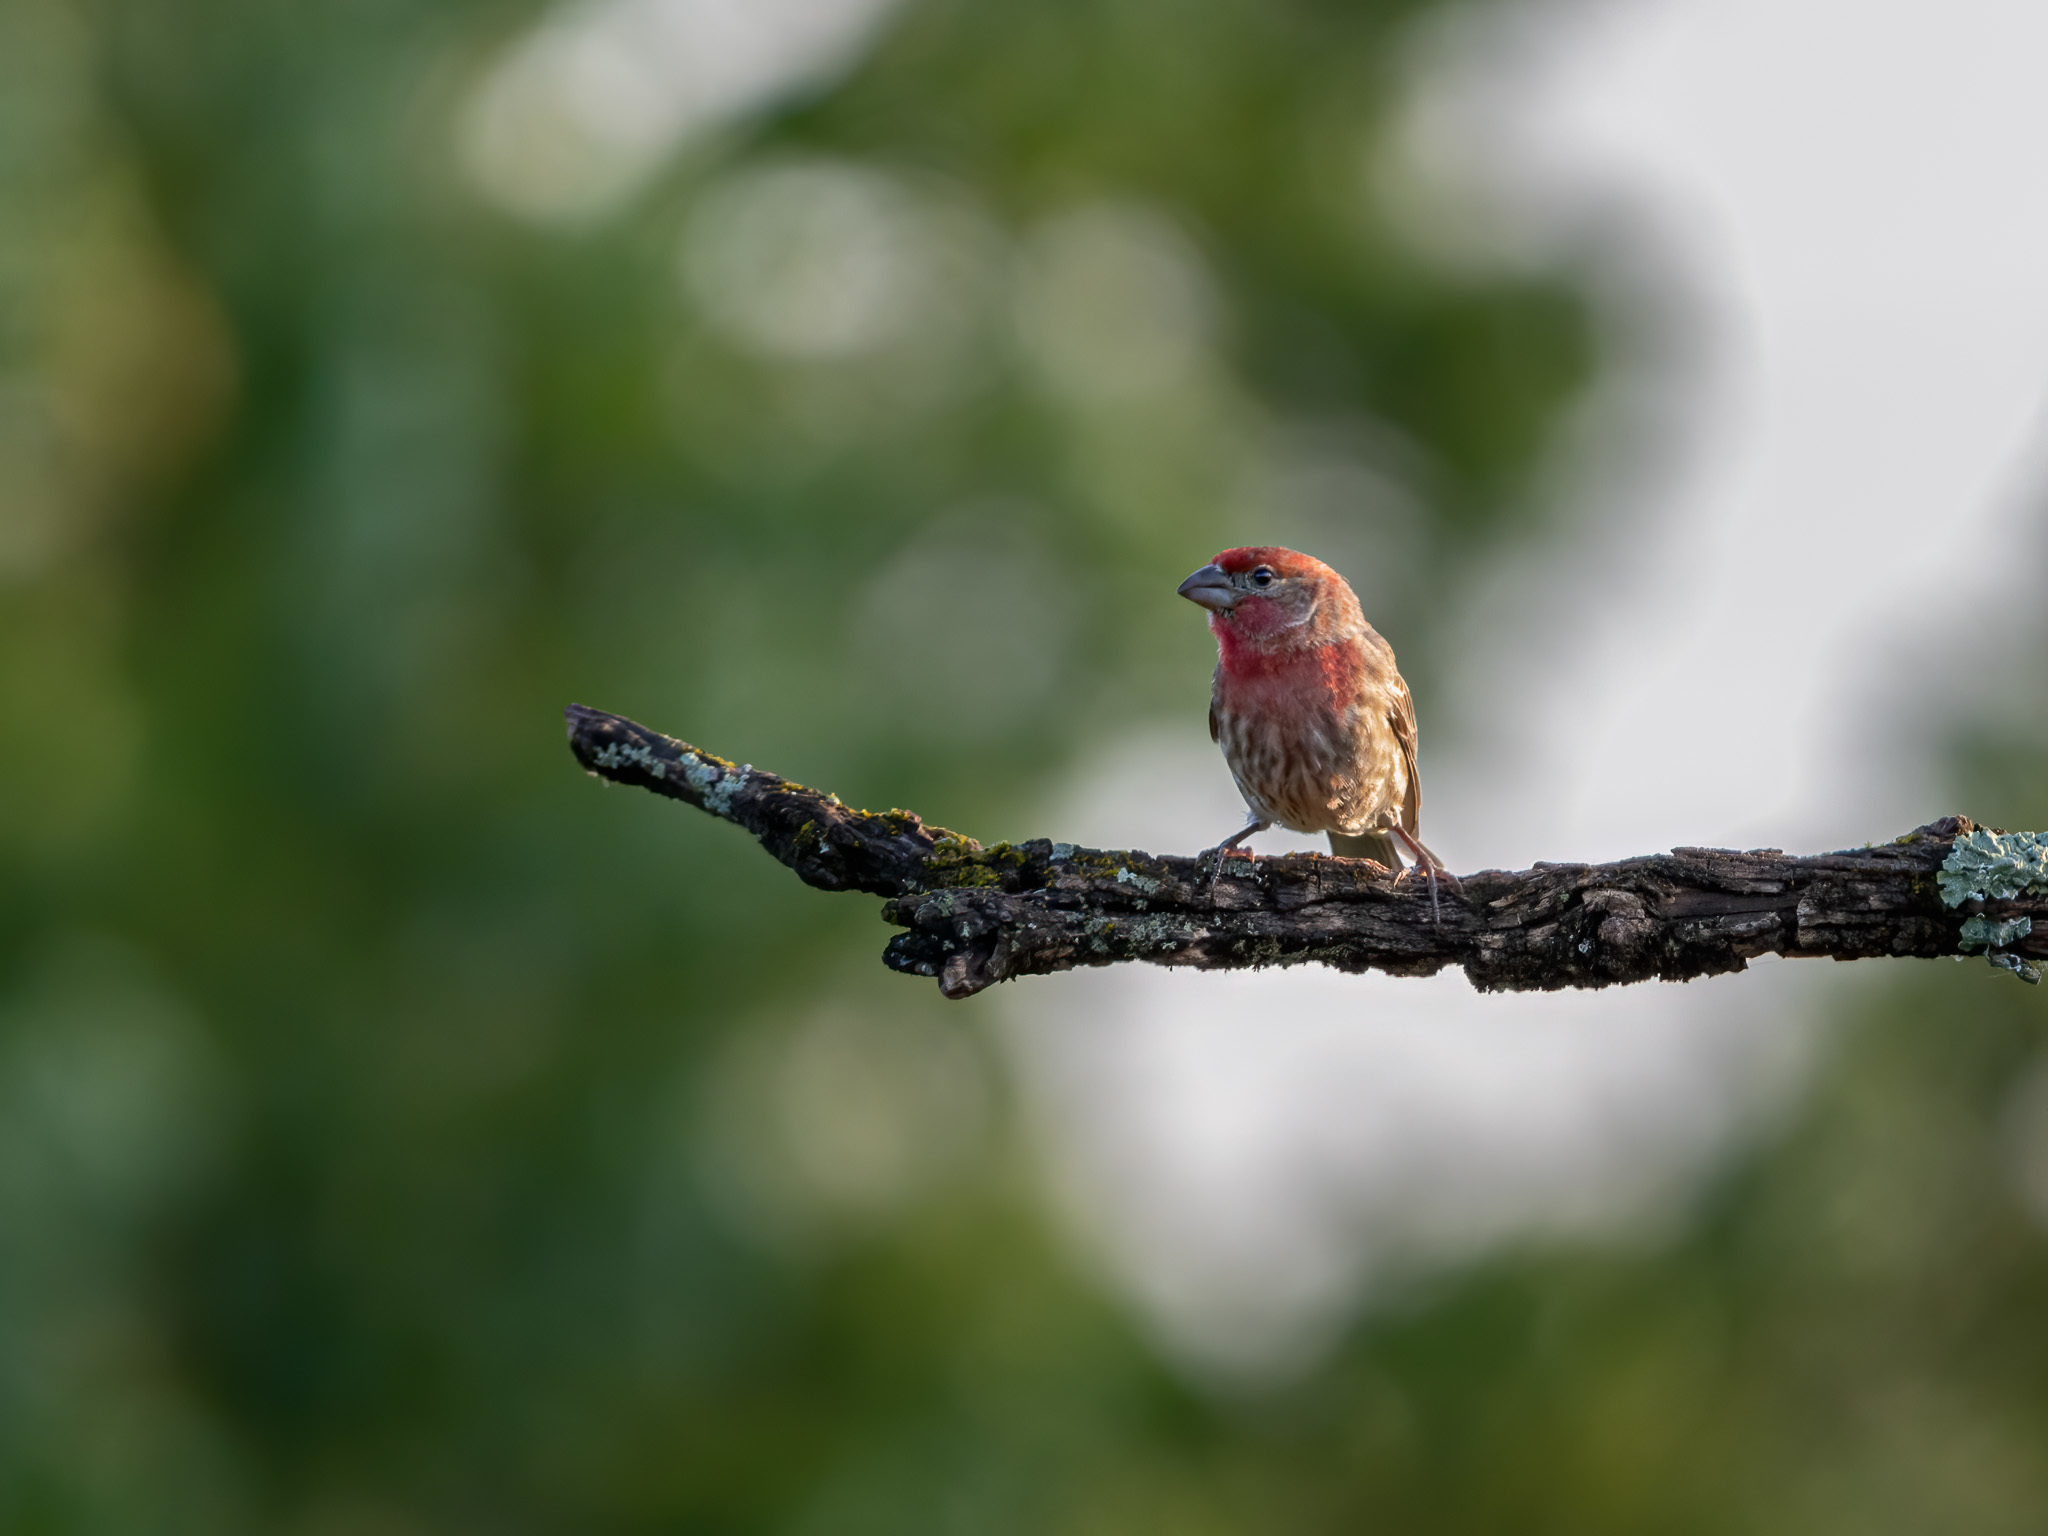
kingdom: Animalia
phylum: Chordata
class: Aves
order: Passeriformes
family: Fringillidae
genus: Haemorhous
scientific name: Haemorhous mexicanus
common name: House finch
